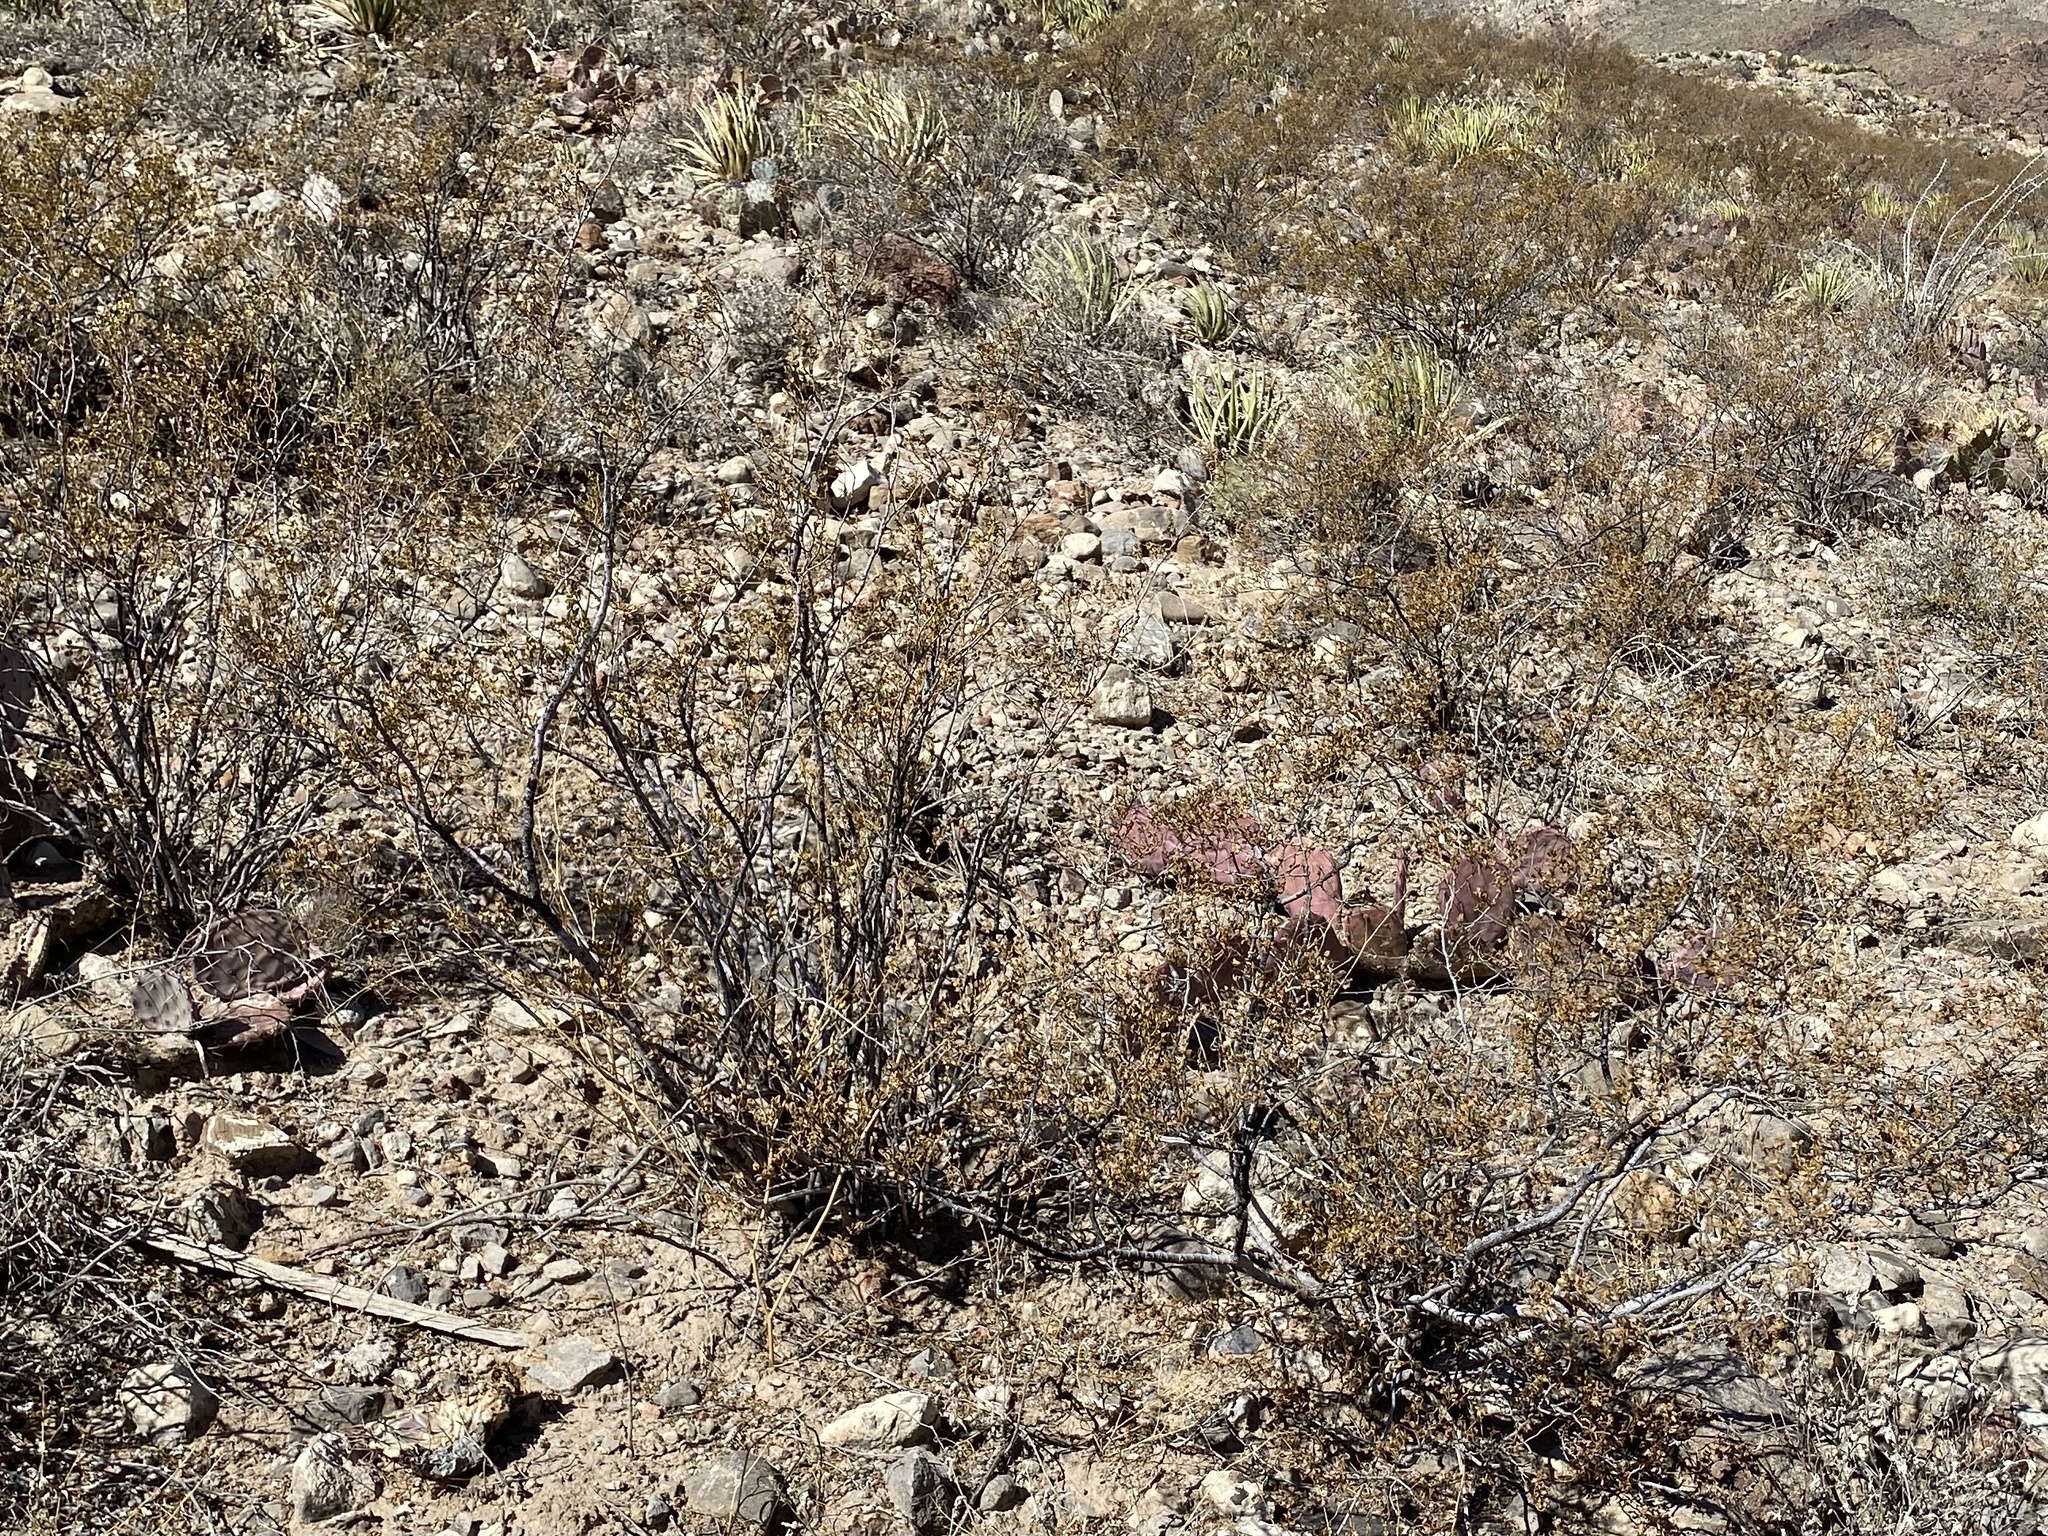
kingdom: Plantae
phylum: Tracheophyta
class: Magnoliopsida
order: Zygophyllales
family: Zygophyllaceae
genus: Larrea
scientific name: Larrea tridentata
